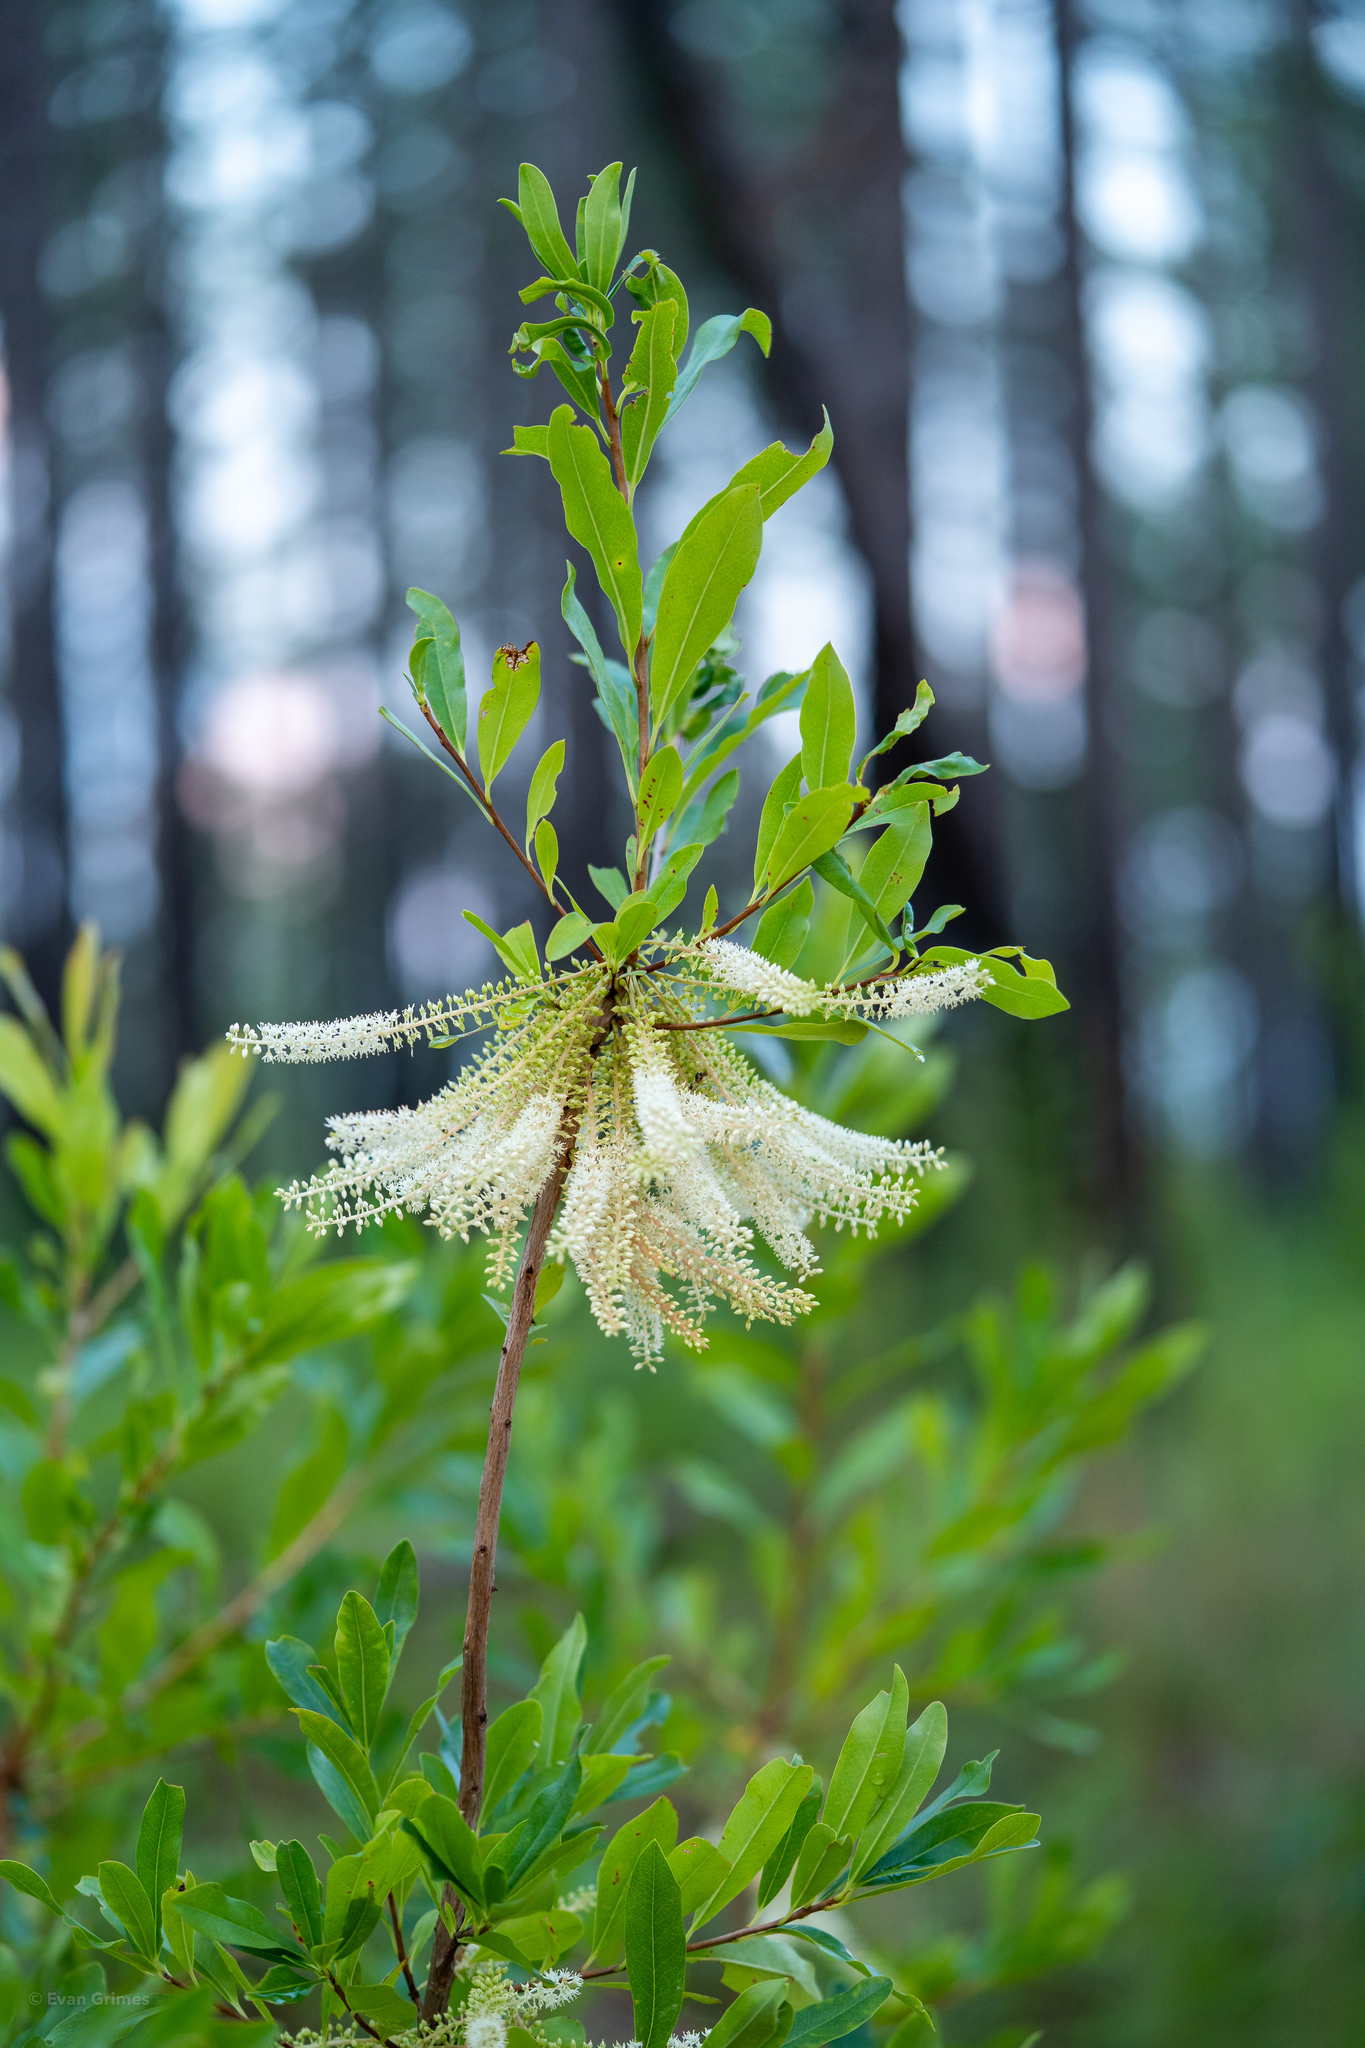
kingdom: Plantae
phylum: Tracheophyta
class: Magnoliopsida
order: Ericales
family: Cyrillaceae
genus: Cyrilla
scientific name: Cyrilla racemiflora
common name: Black titi
